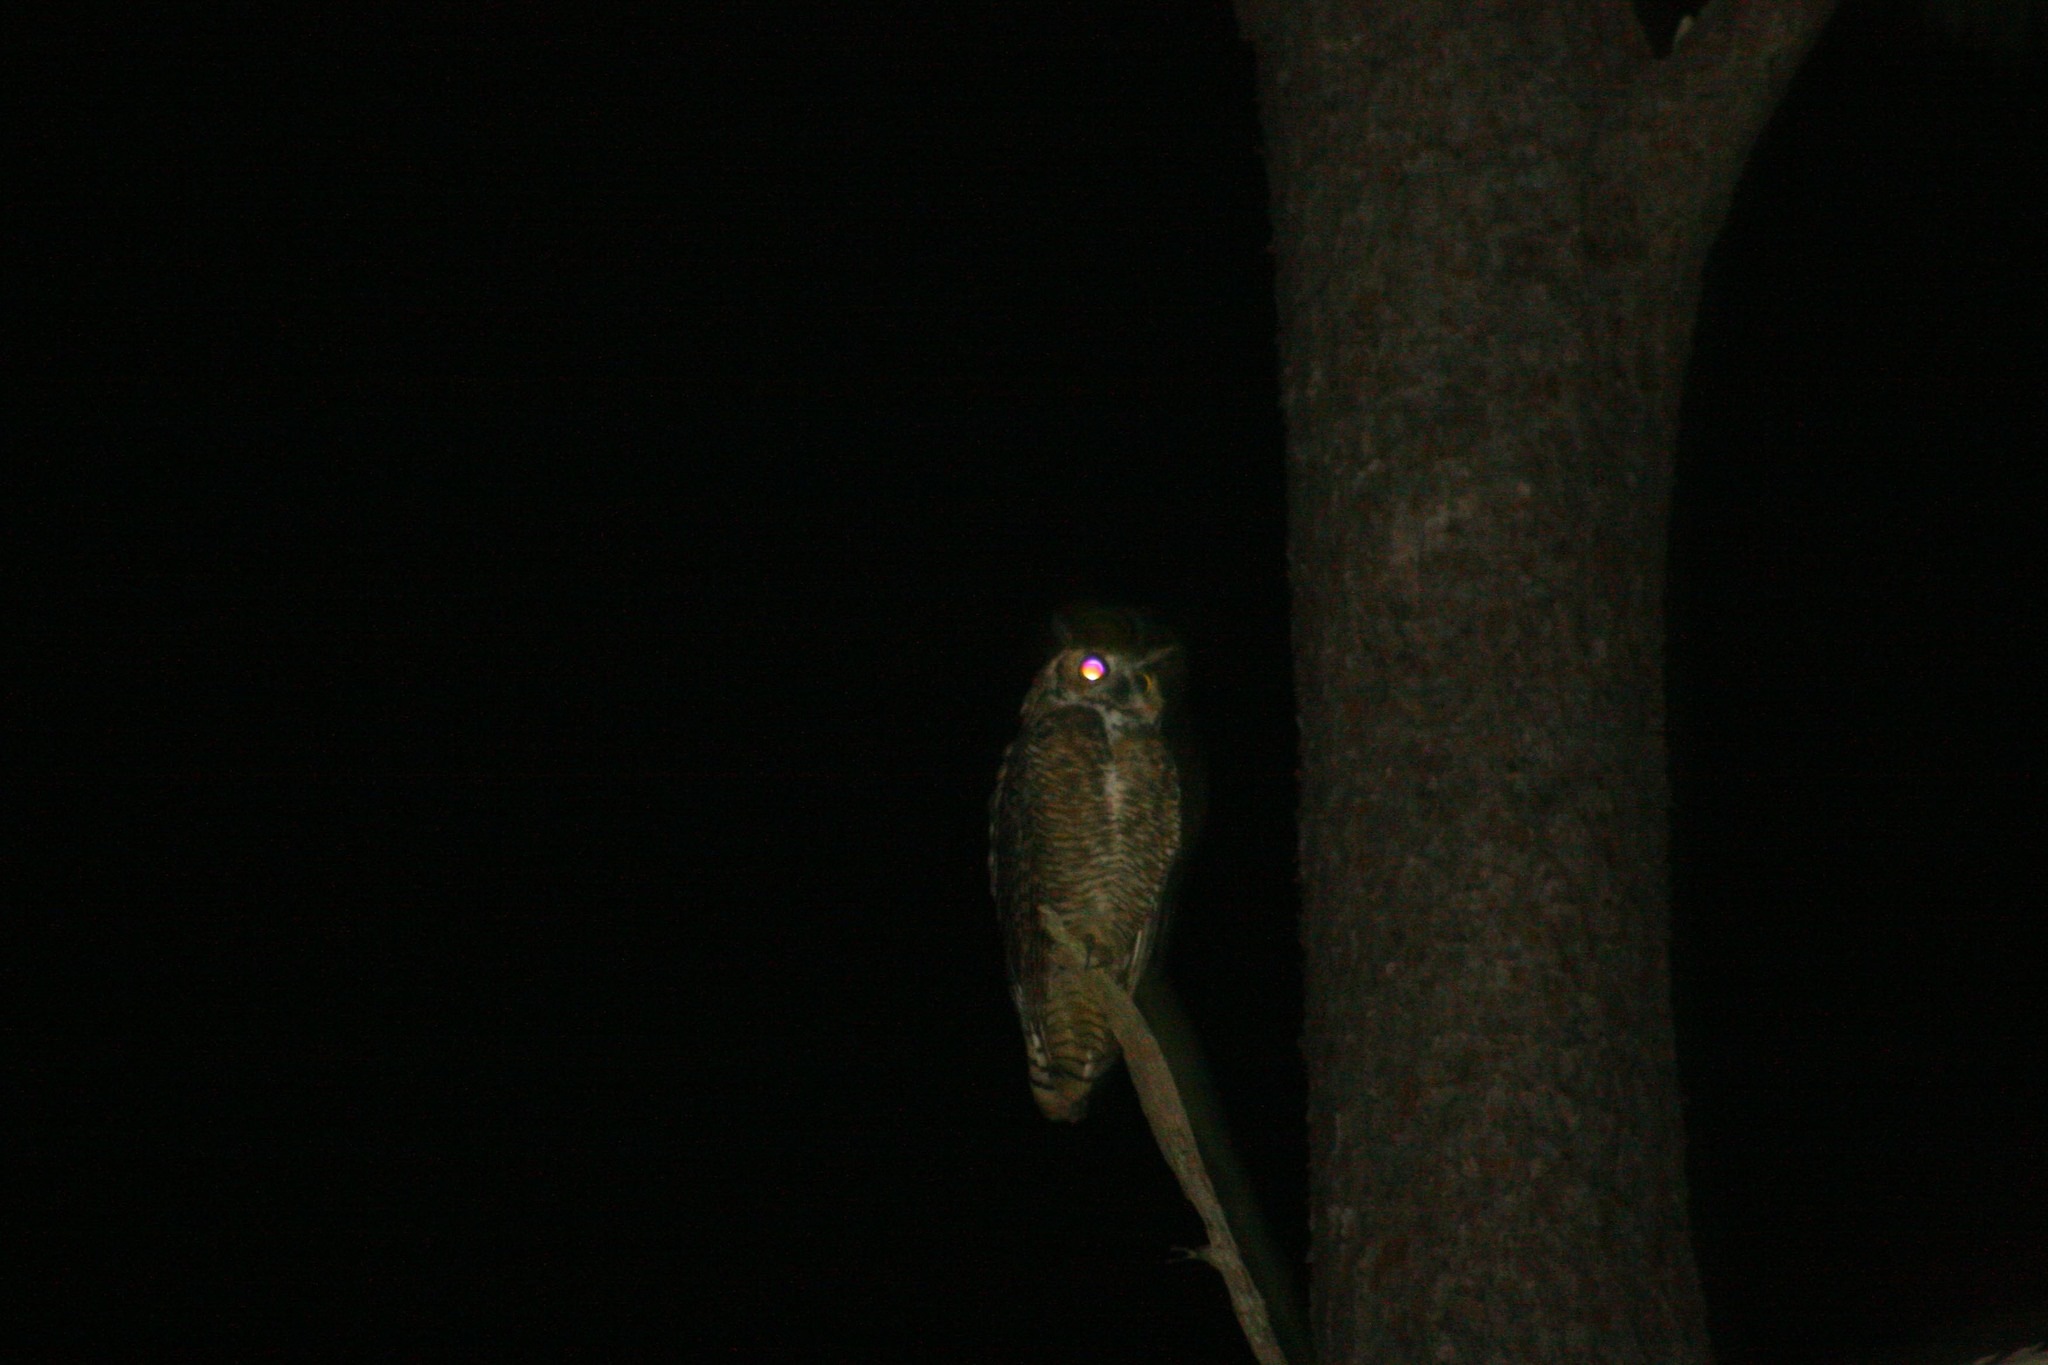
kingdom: Animalia
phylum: Chordata
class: Aves
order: Strigiformes
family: Strigidae
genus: Bubo
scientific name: Bubo virginianus
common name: Great horned owl
